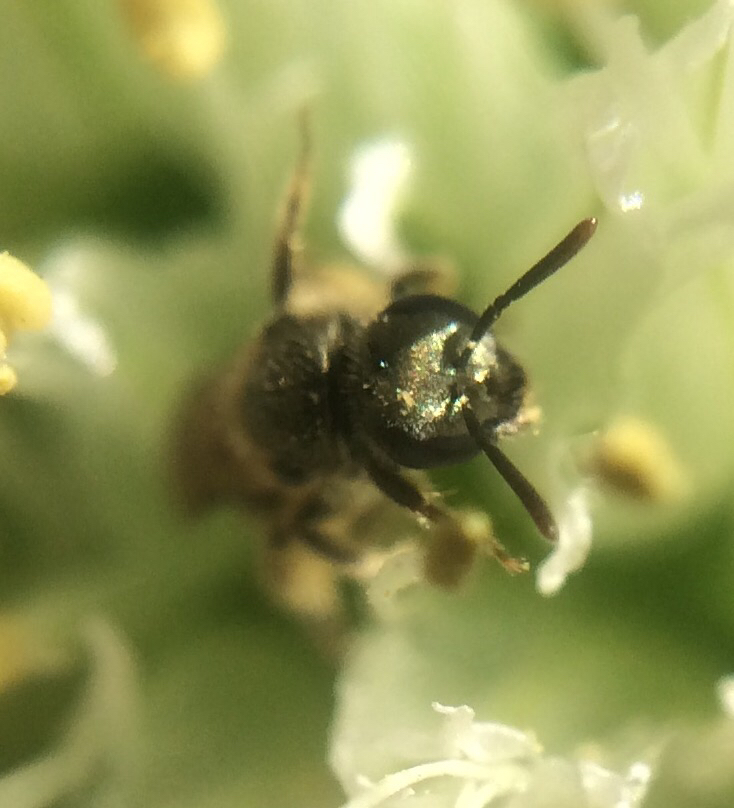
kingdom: Animalia
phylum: Arthropoda
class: Insecta
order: Hymenoptera
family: Halictidae
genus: Dialictus
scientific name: Dialictus
